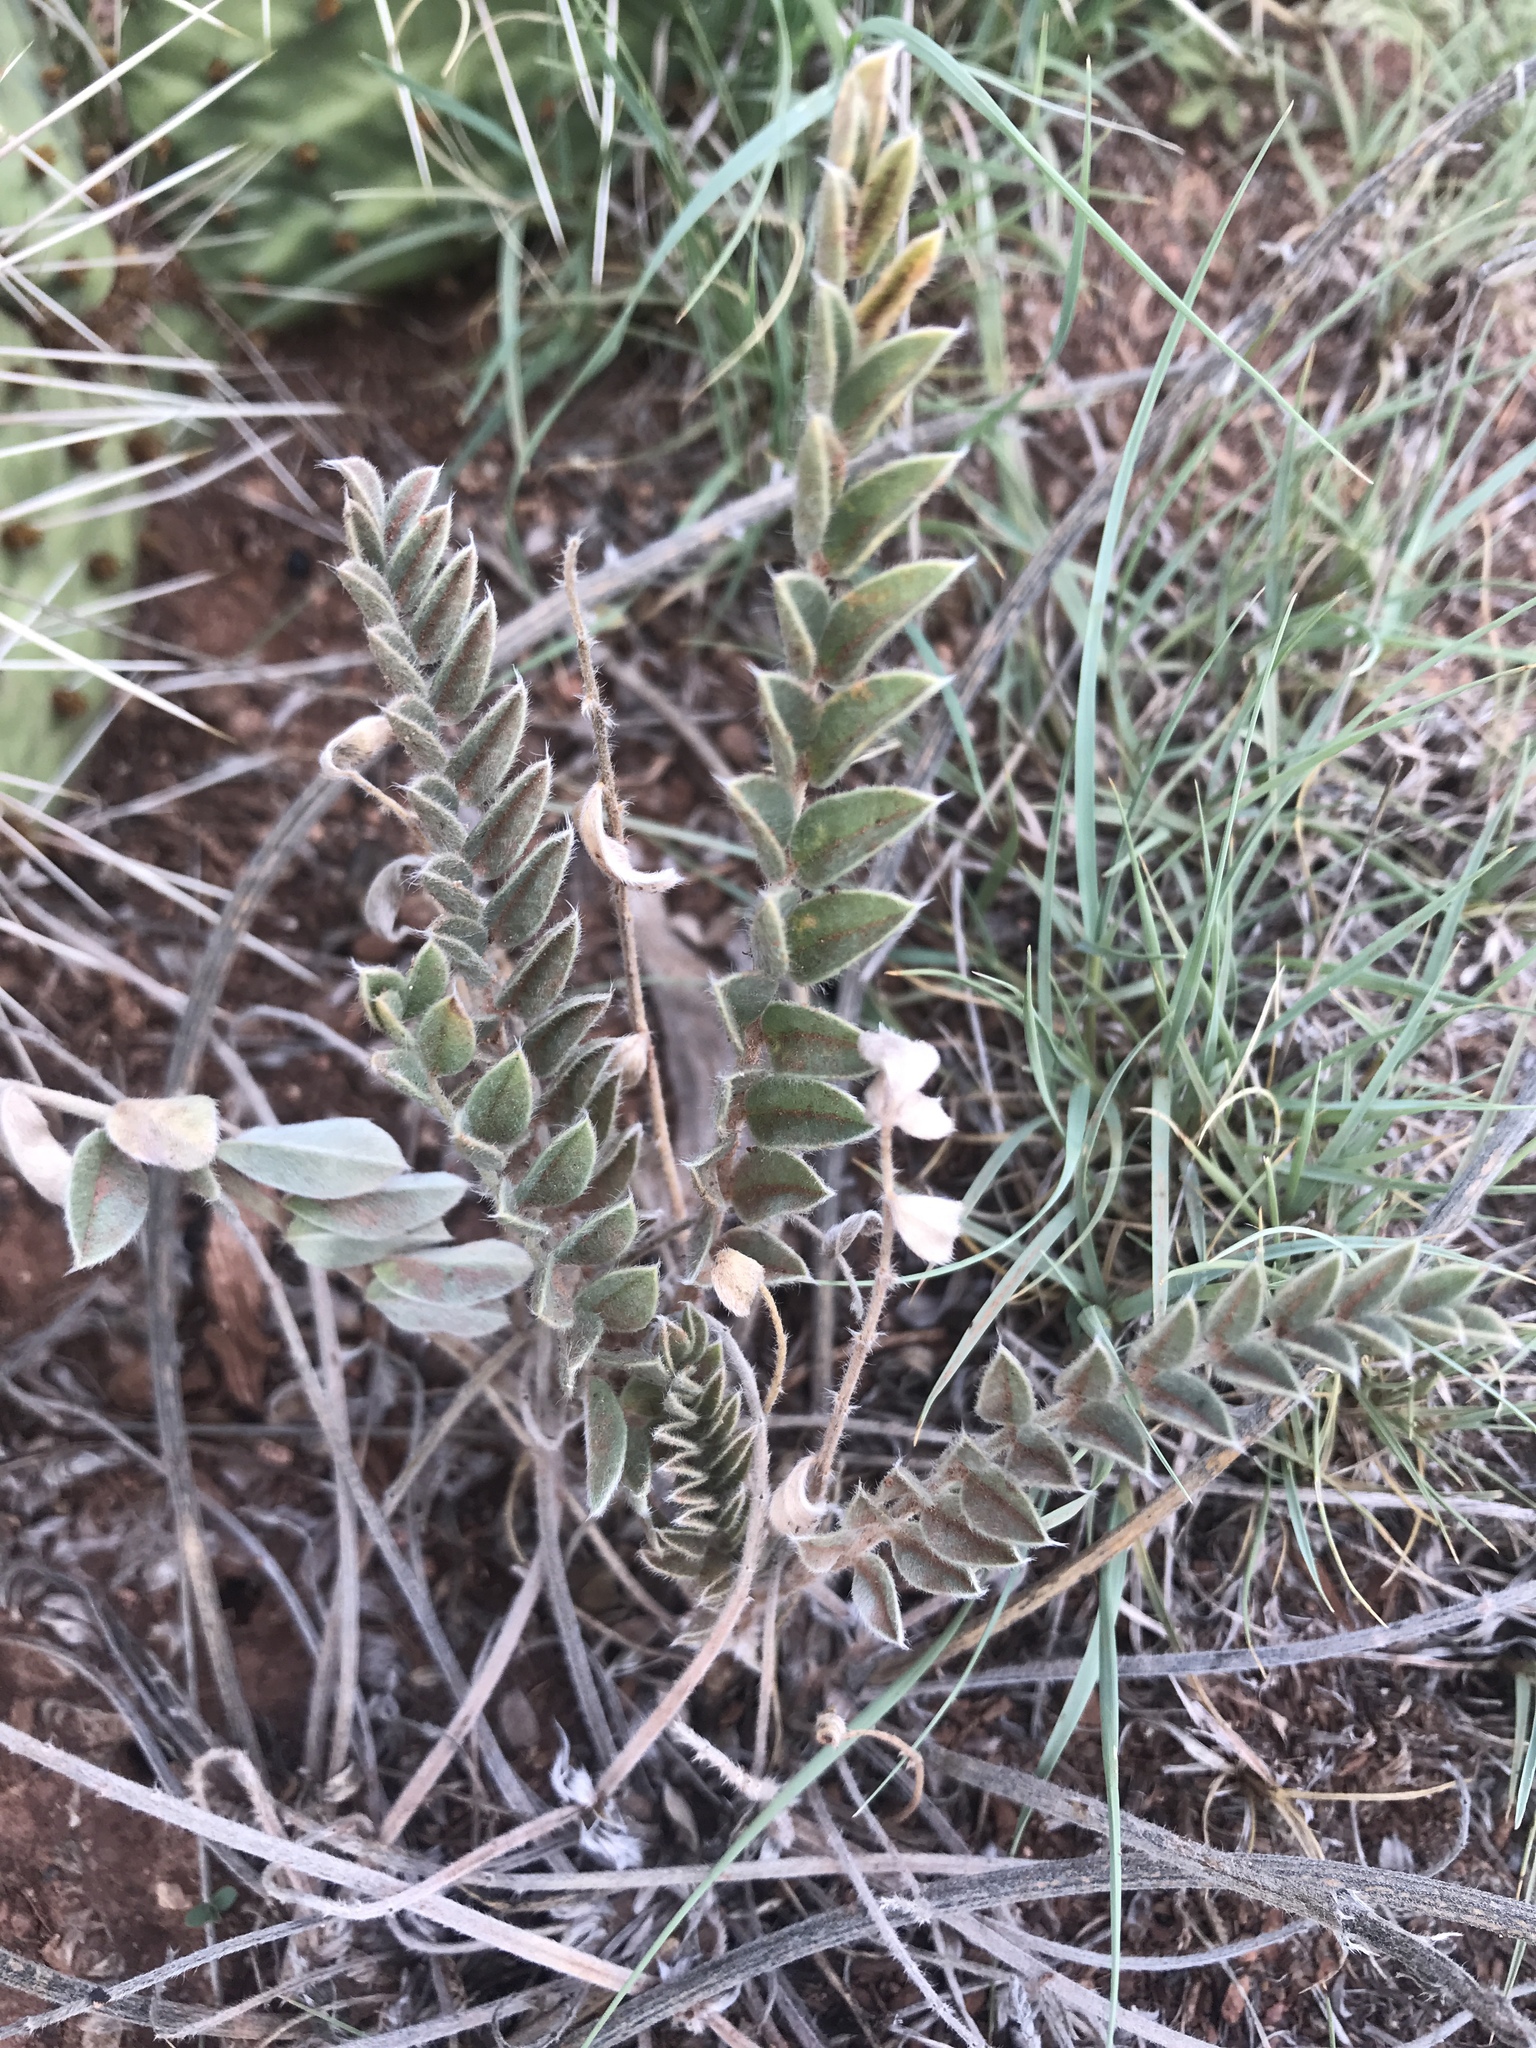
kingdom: Plantae
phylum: Tracheophyta
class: Magnoliopsida
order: Fabales
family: Fabaceae
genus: Astragalus
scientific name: Astragalus mollissimus
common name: Woolly locoweed
